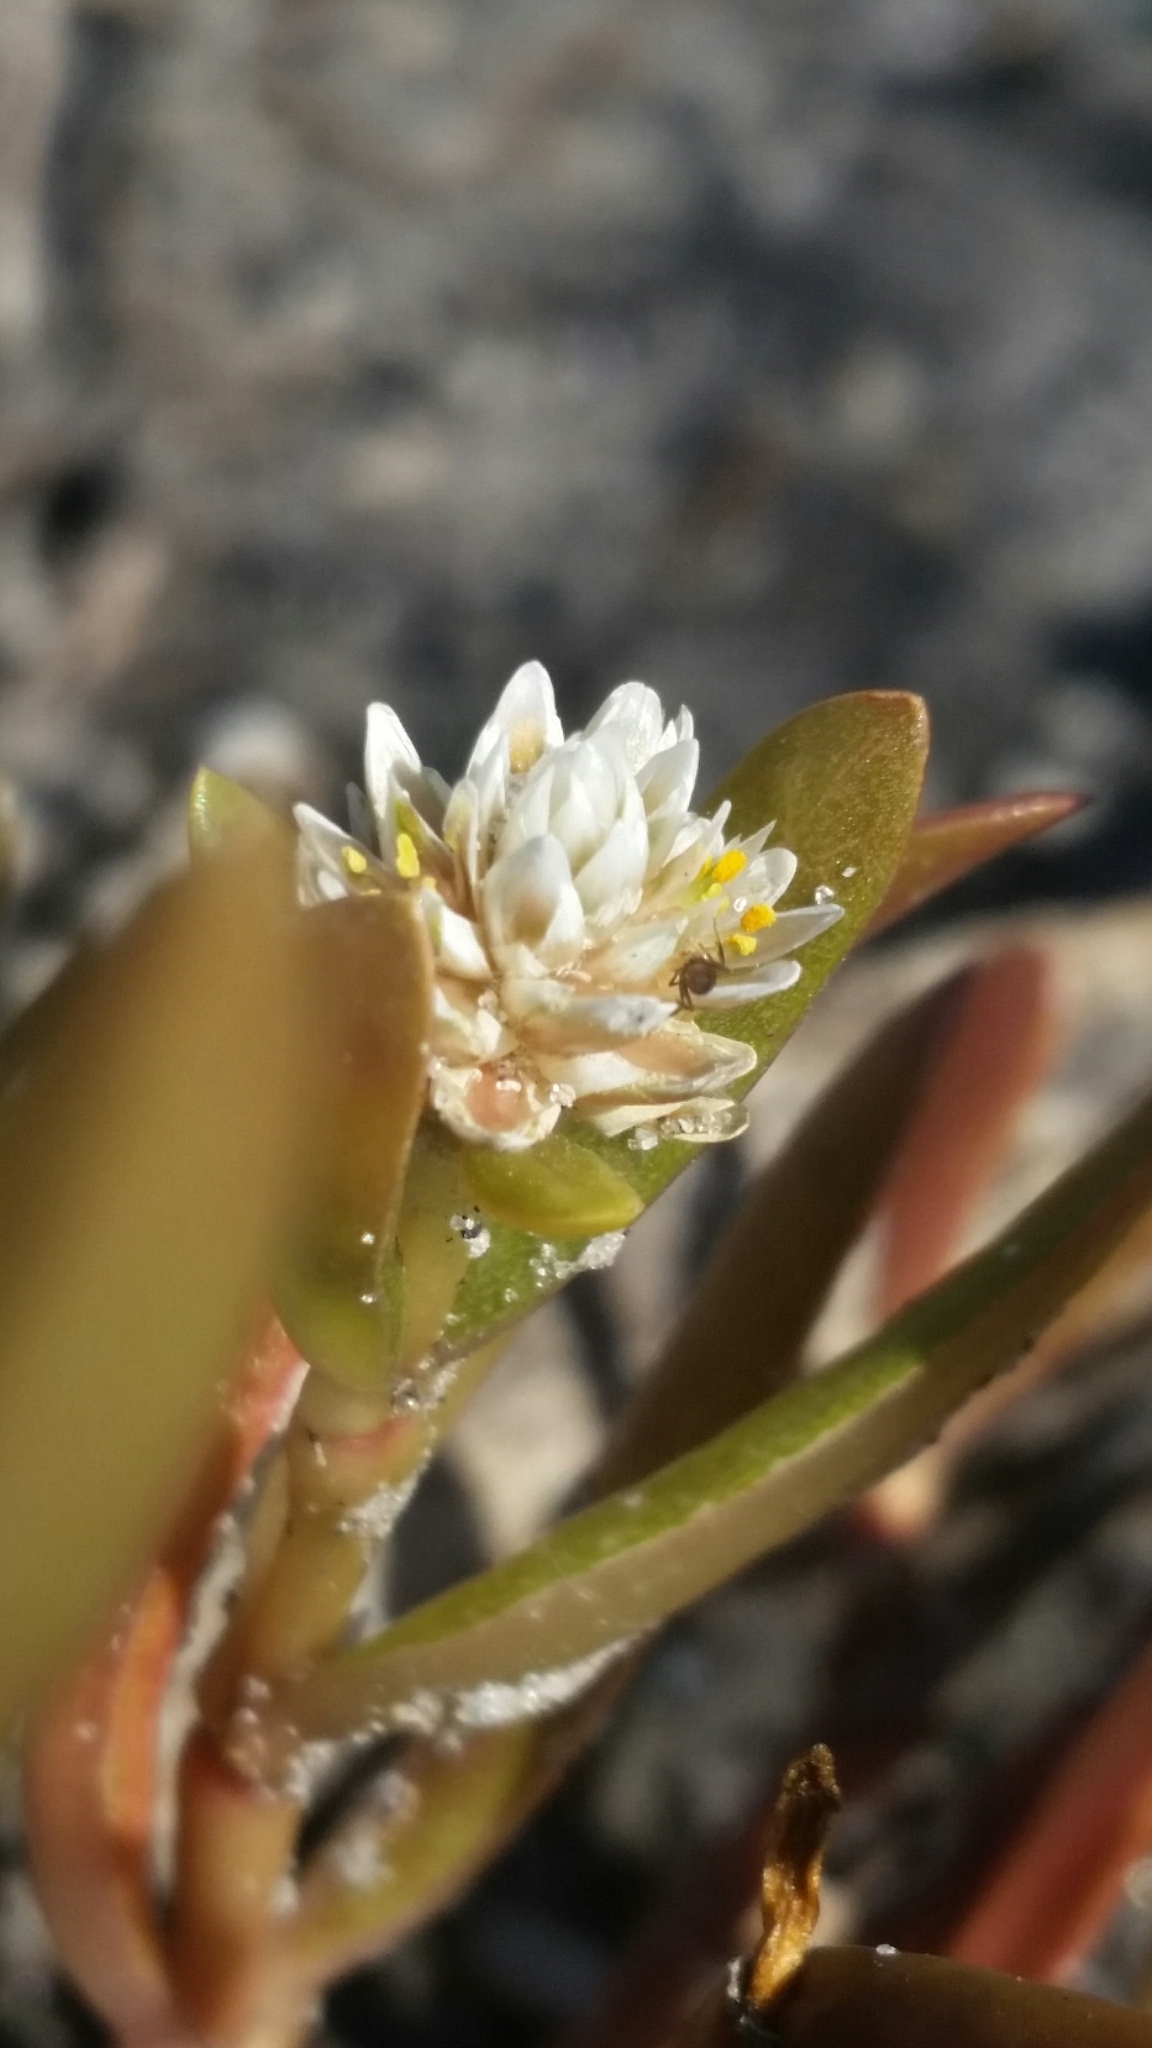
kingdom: Plantae
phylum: Tracheophyta
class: Magnoliopsida
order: Caryophyllales
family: Amaranthaceae
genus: Gomphrena
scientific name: Gomphrena vermicularis
